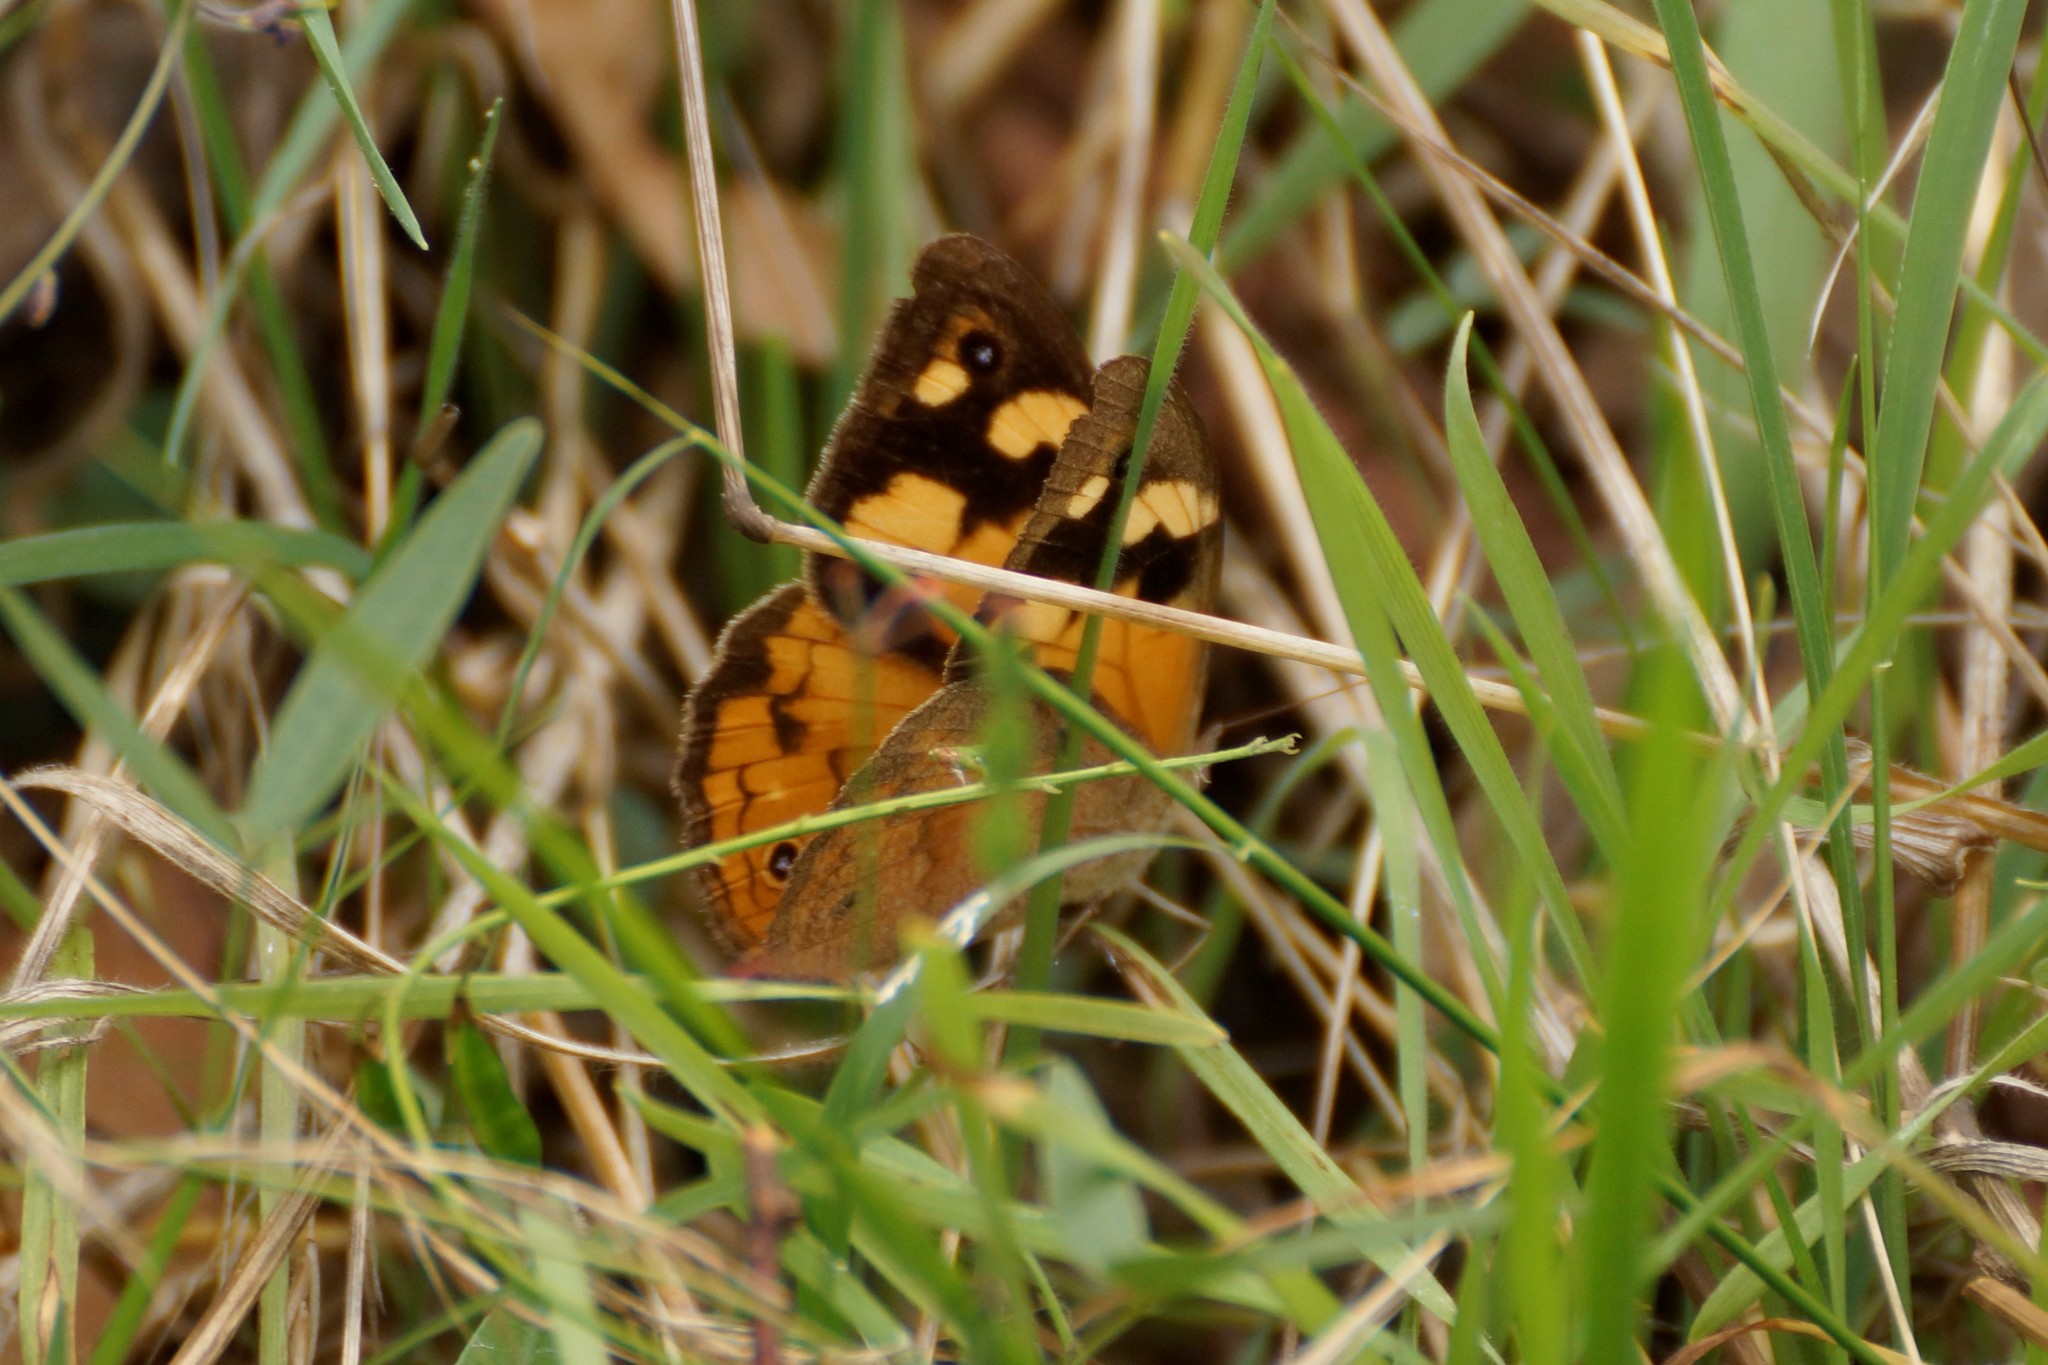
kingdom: Animalia
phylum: Arthropoda
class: Insecta
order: Lepidoptera
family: Nymphalidae
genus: Heteronympha
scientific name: Heteronympha merope
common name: Common brown
